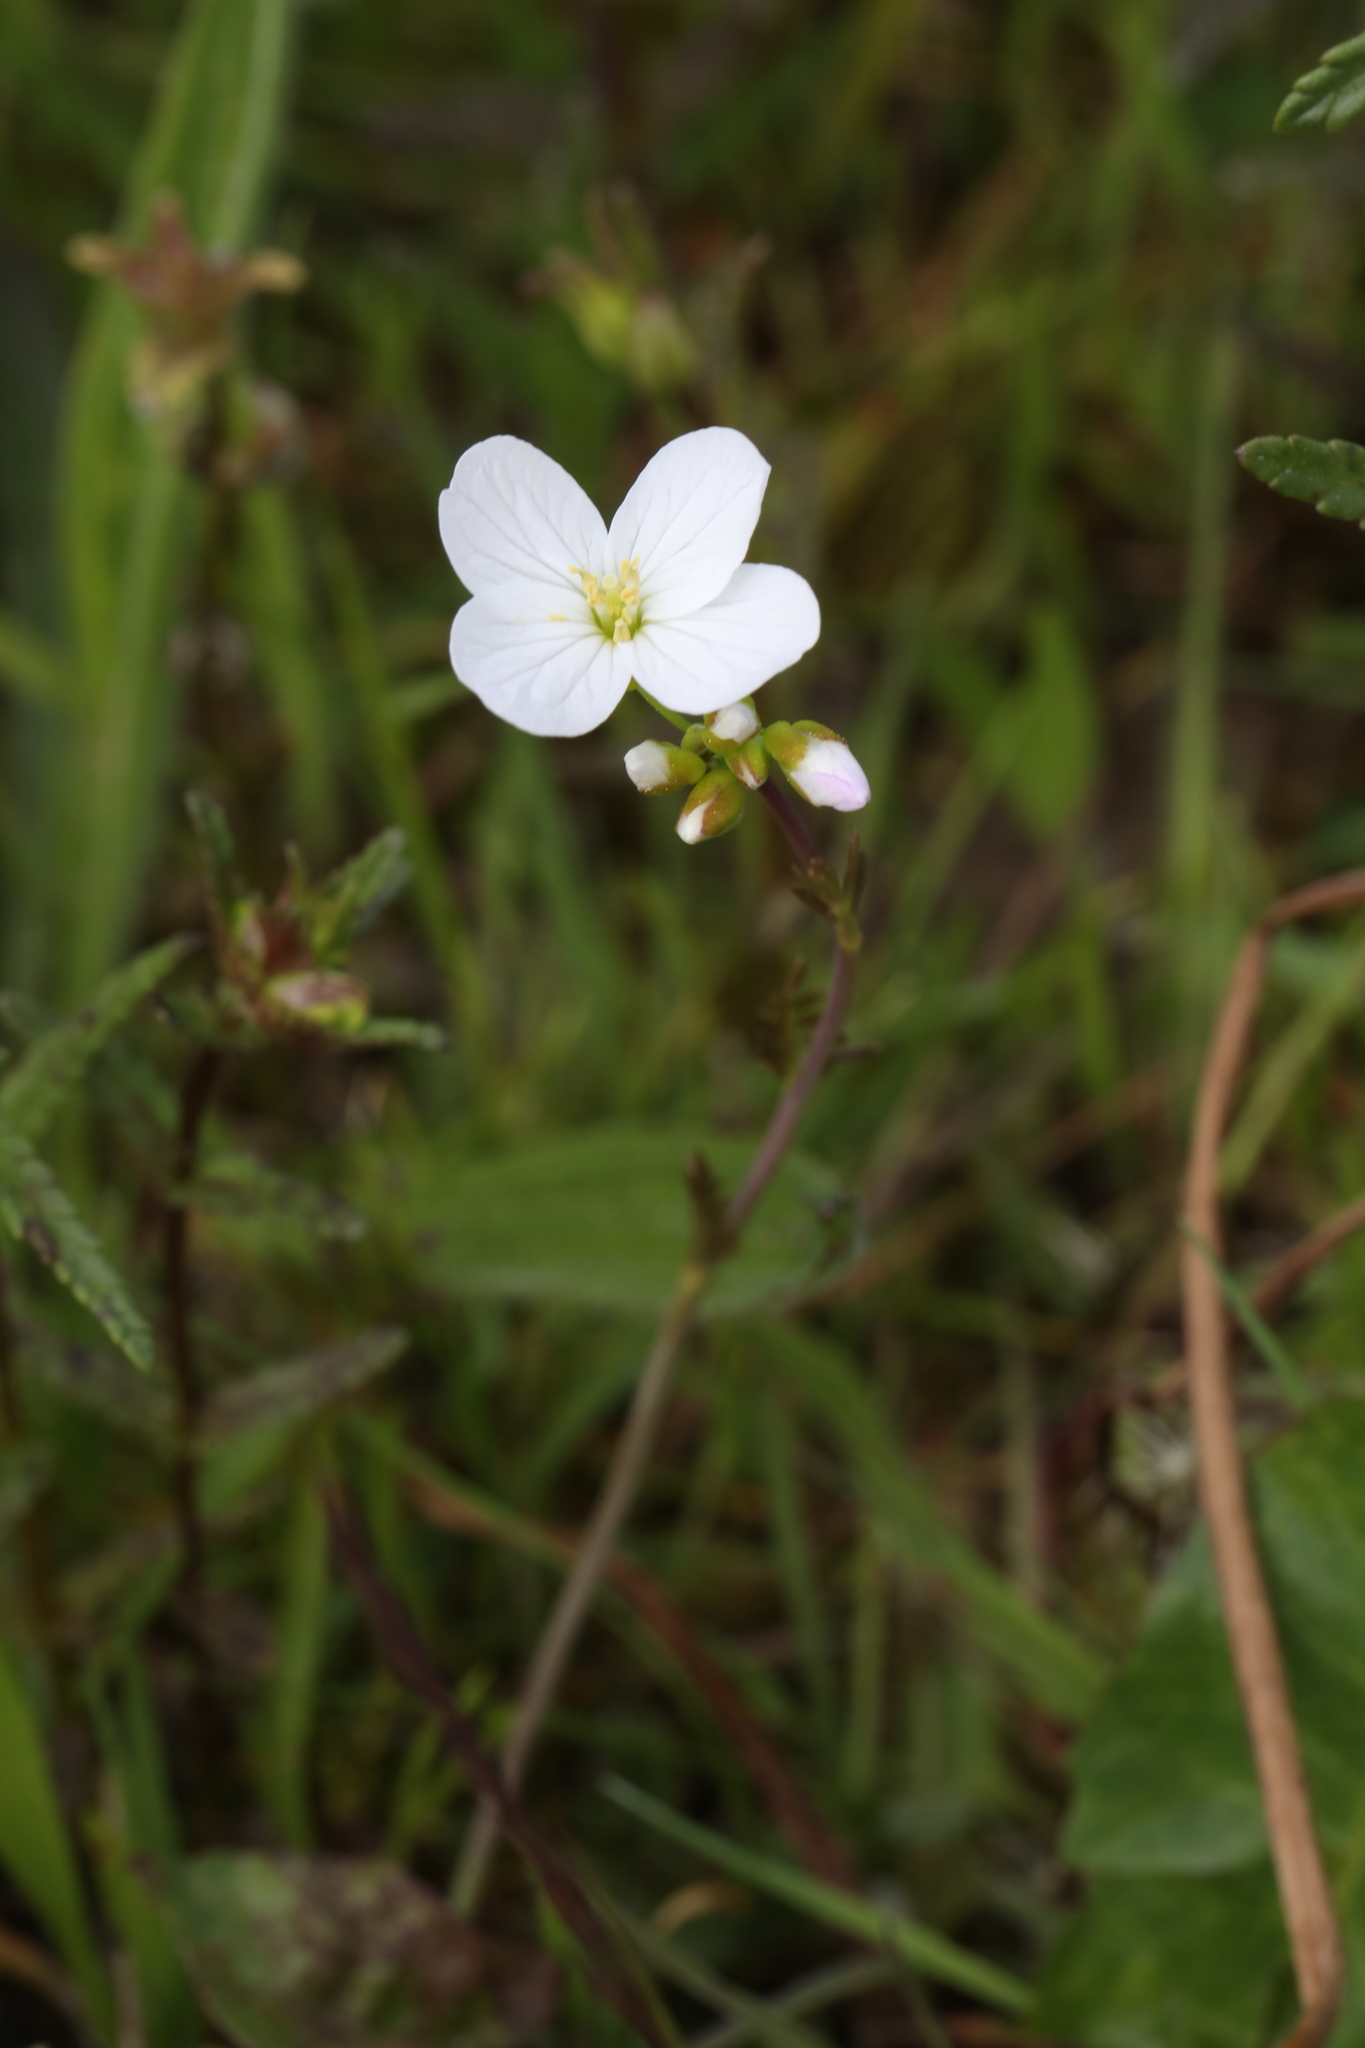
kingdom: Plantae
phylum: Tracheophyta
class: Magnoliopsida
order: Brassicales
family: Brassicaceae
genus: Cardamine
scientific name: Cardamine pratensis
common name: Cuckoo flower
